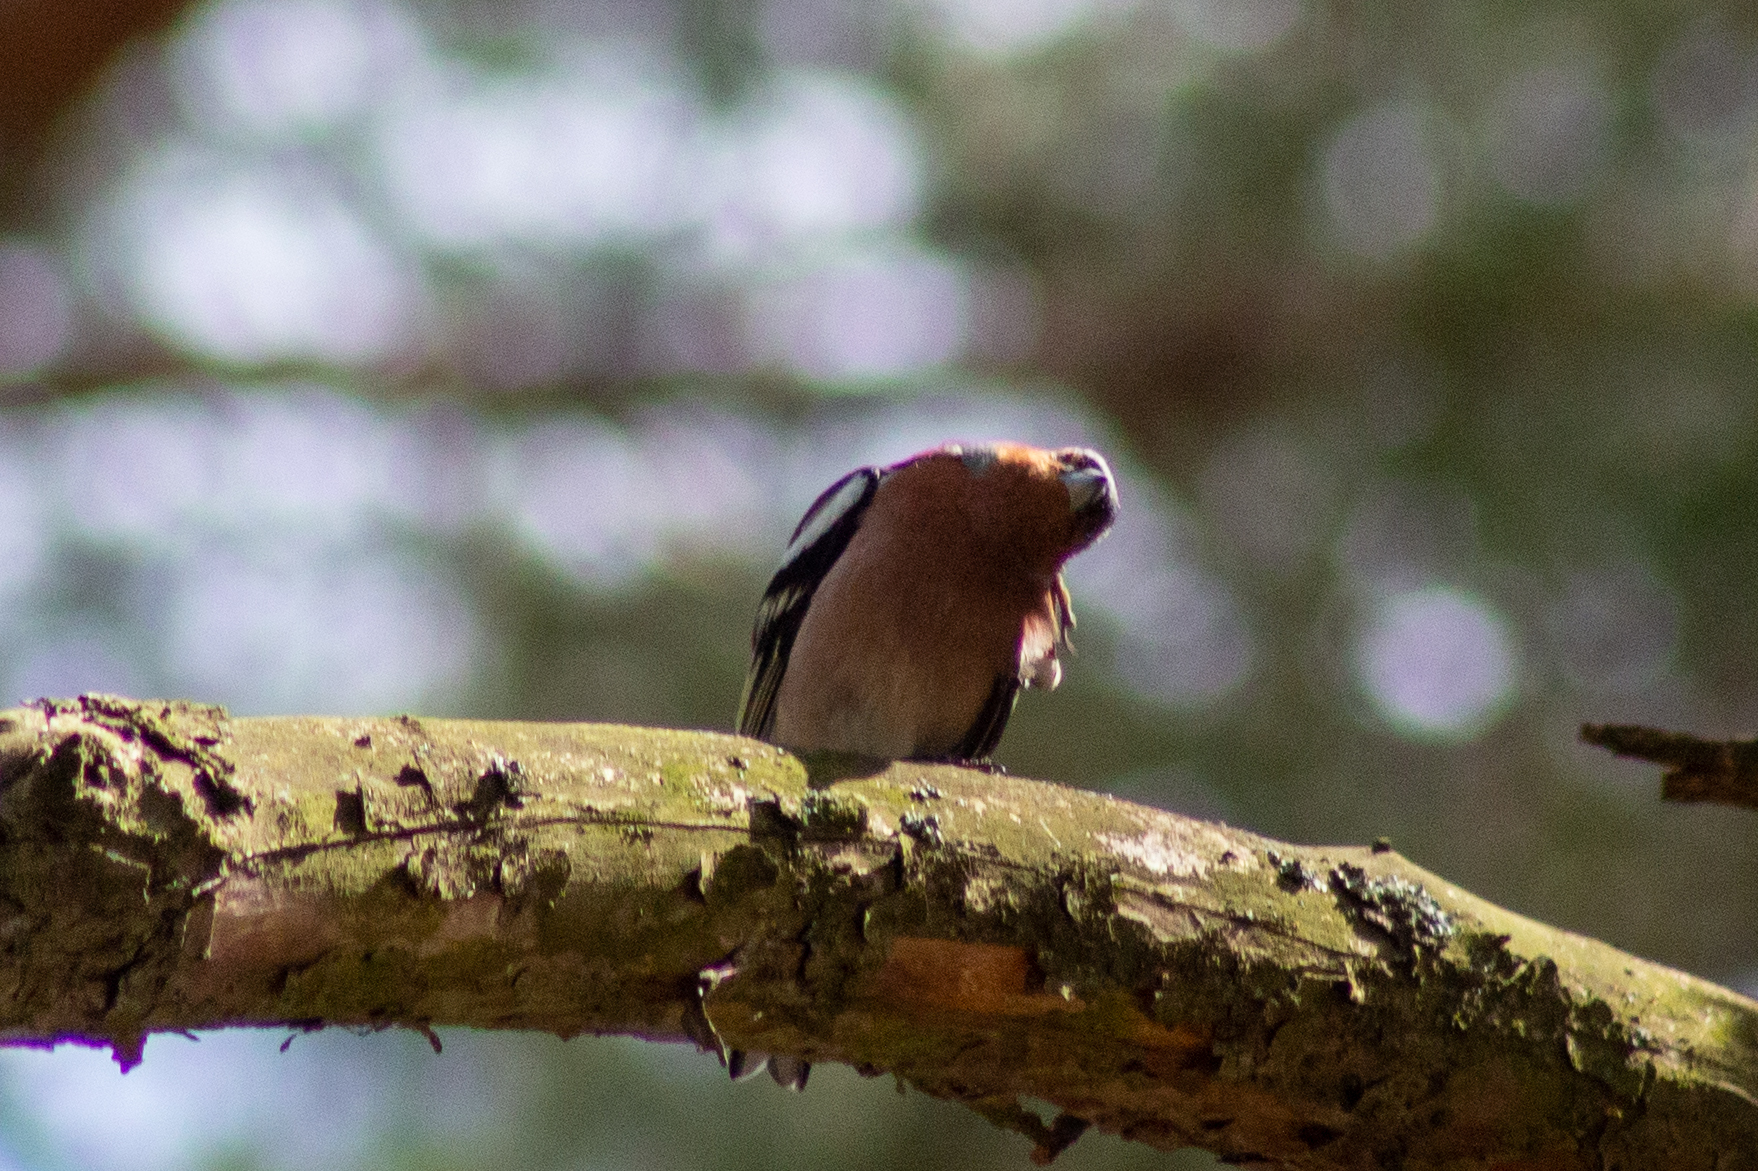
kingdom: Animalia
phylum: Chordata
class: Aves
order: Passeriformes
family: Fringillidae
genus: Fringilla
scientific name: Fringilla coelebs
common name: Common chaffinch
